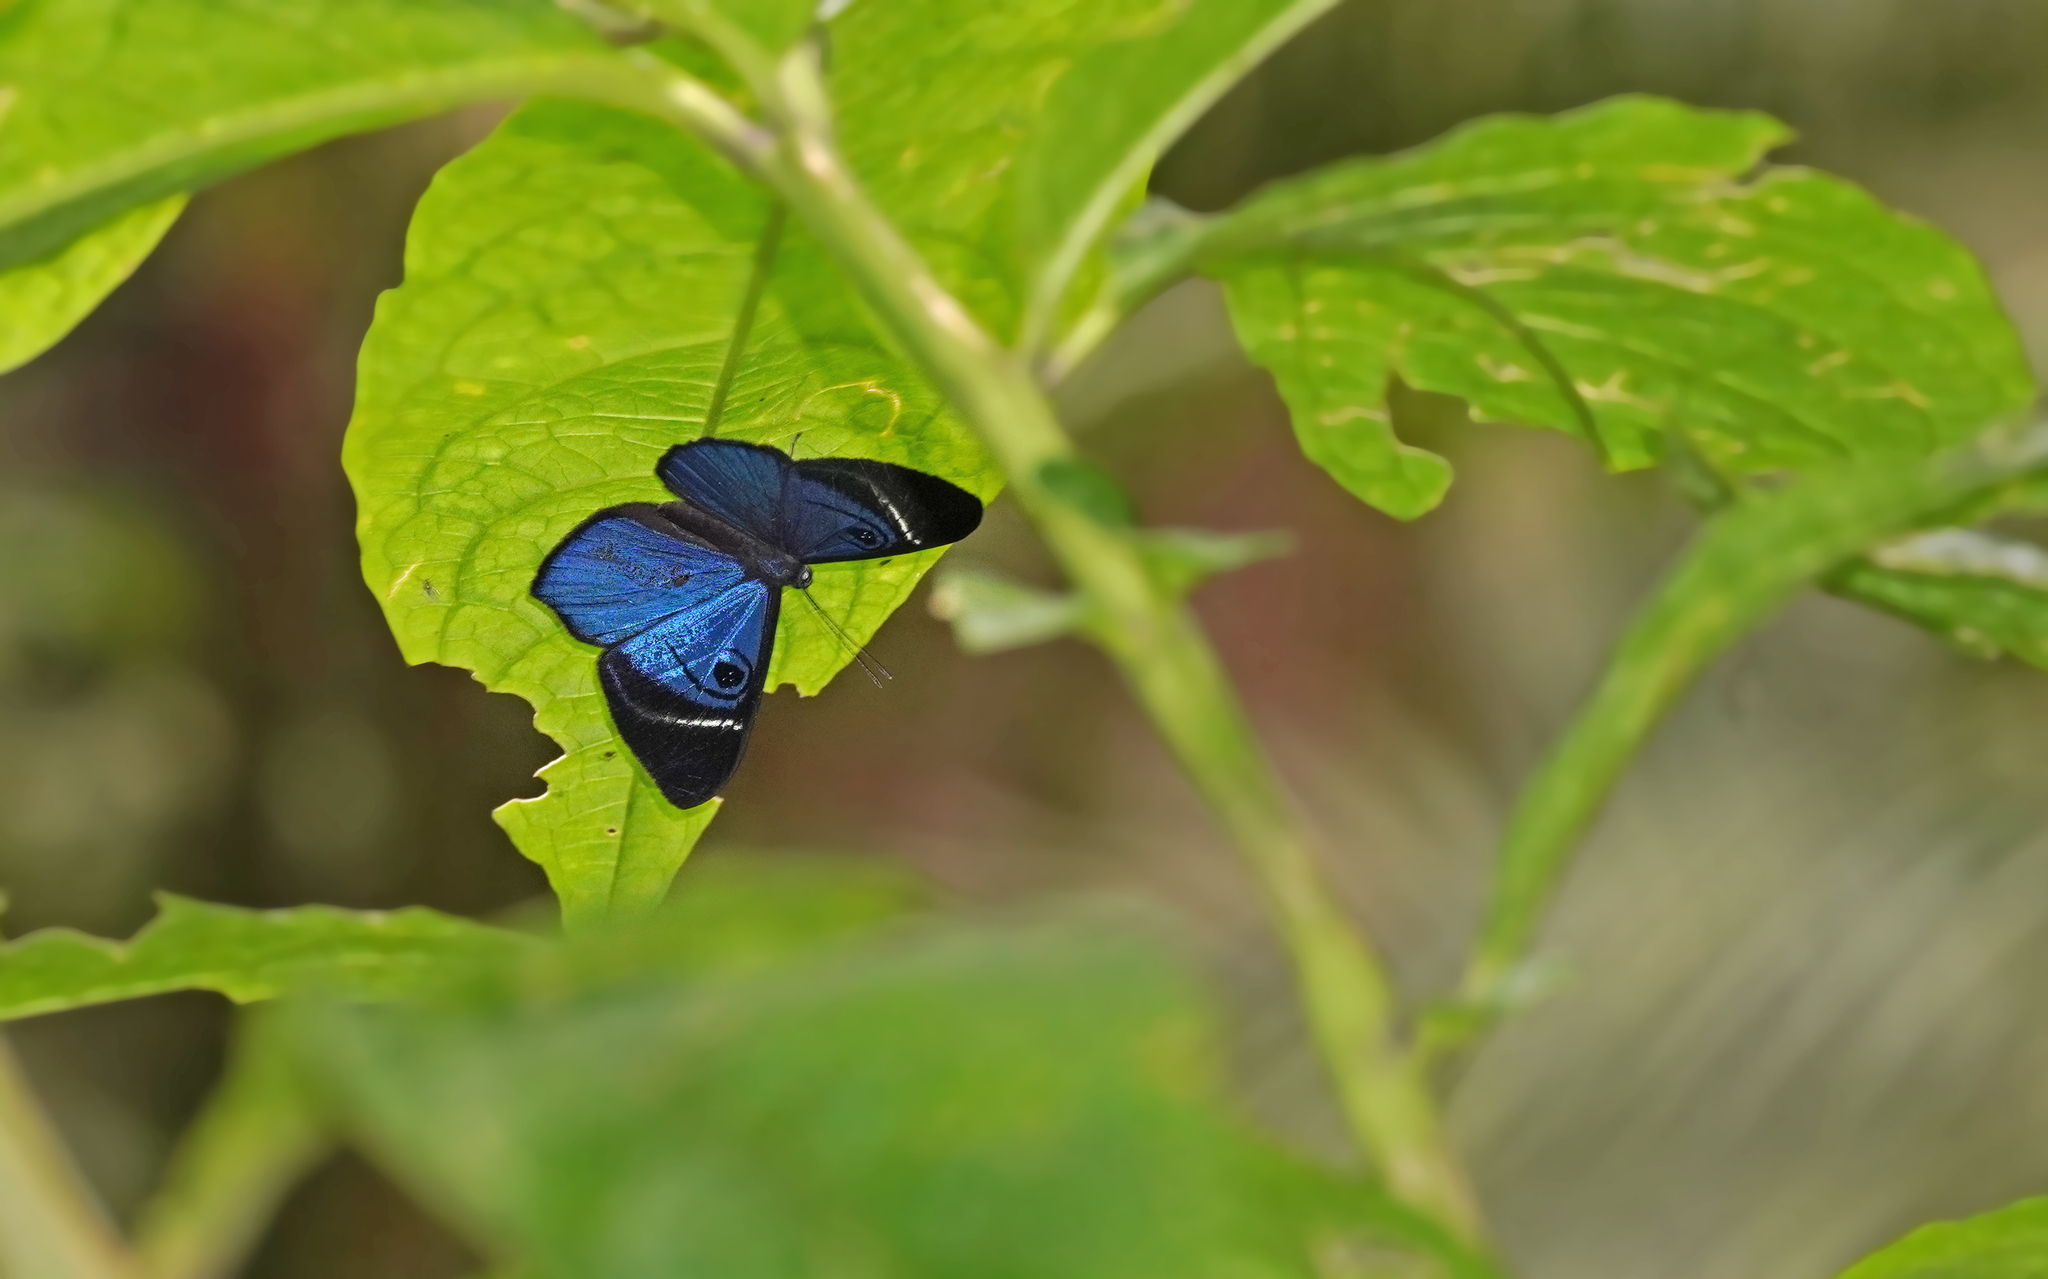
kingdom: Animalia
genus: Mesosemia
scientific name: Mesosemia mevania
